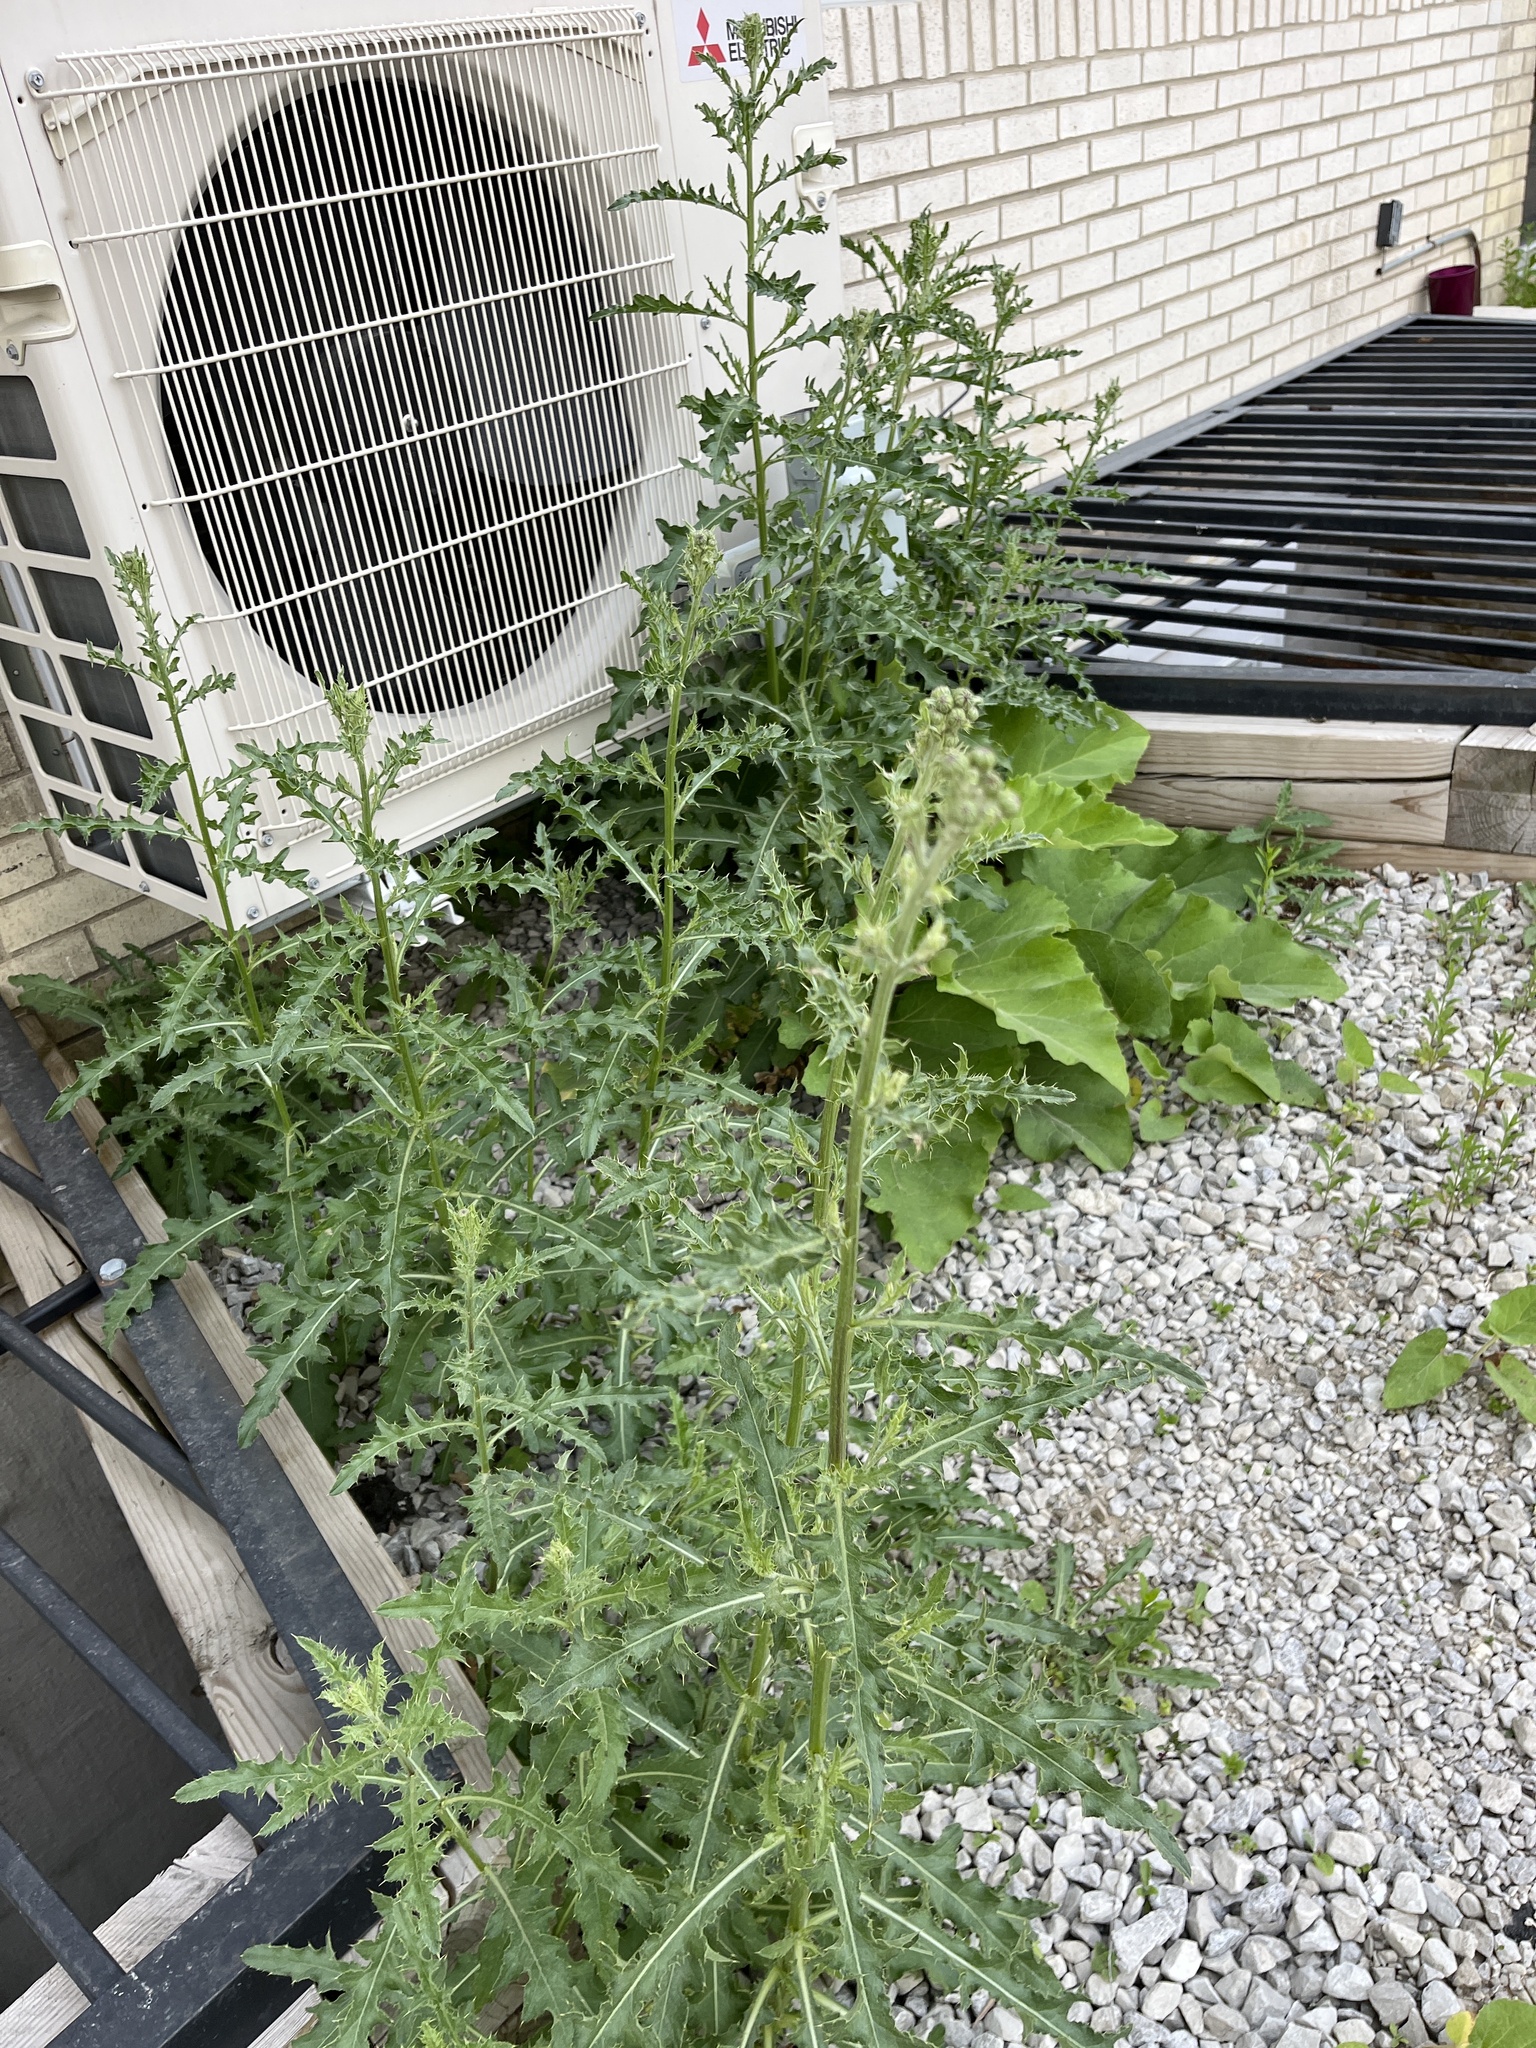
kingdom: Plantae
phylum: Tracheophyta
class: Magnoliopsida
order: Asterales
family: Asteraceae
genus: Cirsium
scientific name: Cirsium arvense
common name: Creeping thistle
